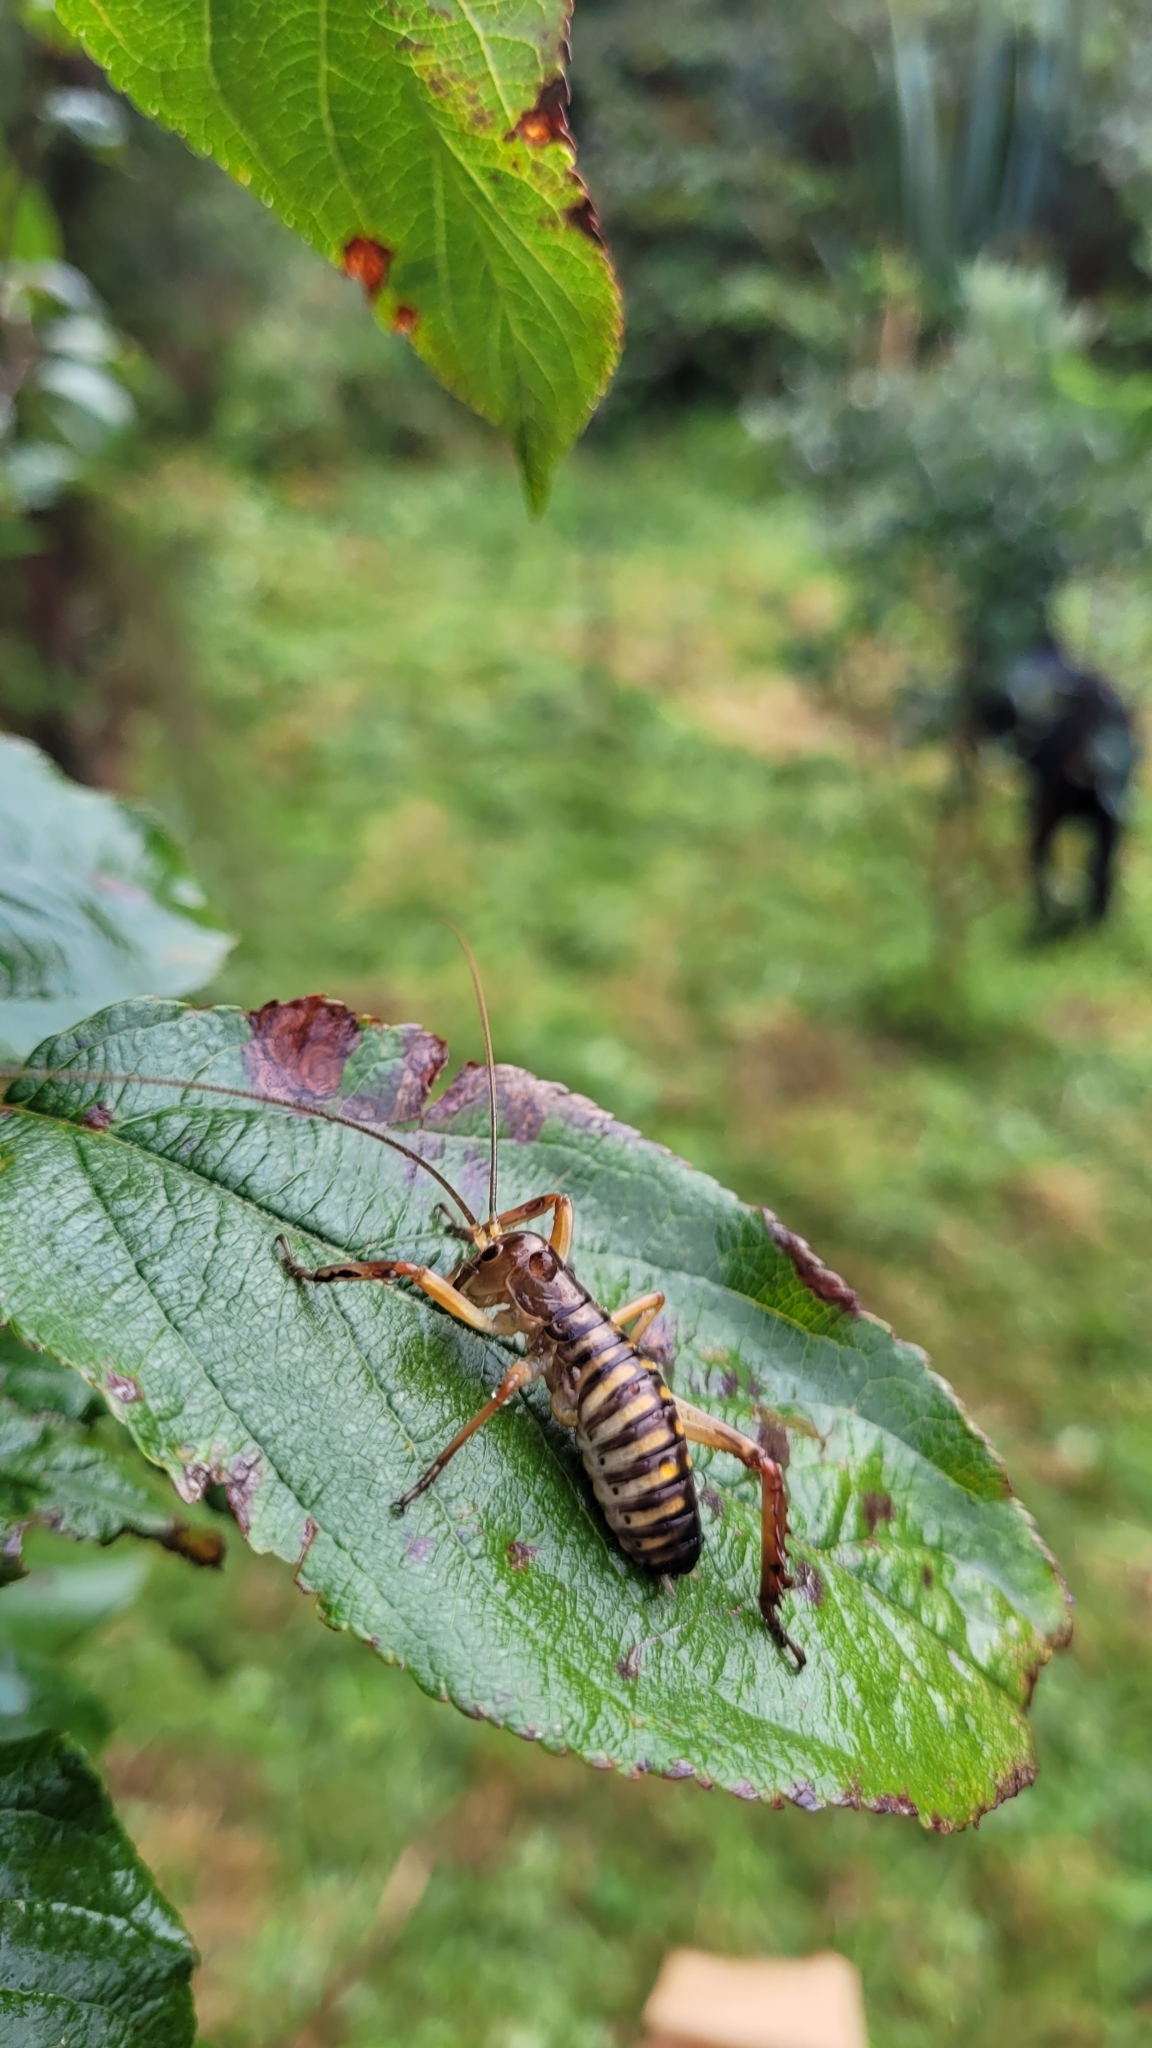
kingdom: Animalia
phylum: Arthropoda
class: Insecta
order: Orthoptera
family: Anostostomatidae
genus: Hemideina
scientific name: Hemideina crassidens
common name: Wellington tree weta
